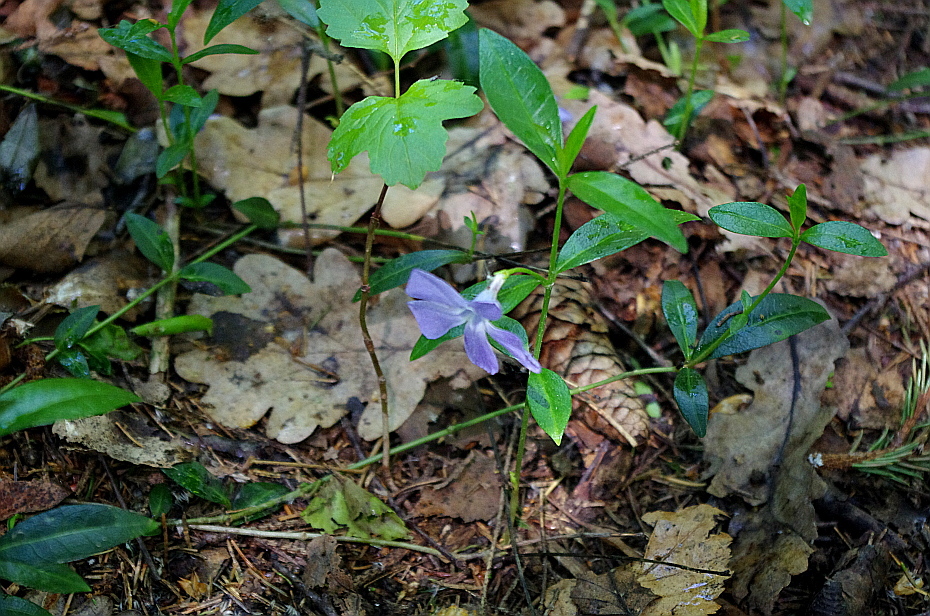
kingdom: Plantae
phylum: Tracheophyta
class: Magnoliopsida
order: Gentianales
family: Apocynaceae
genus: Vinca
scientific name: Vinca minor
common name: Lesser periwinkle
